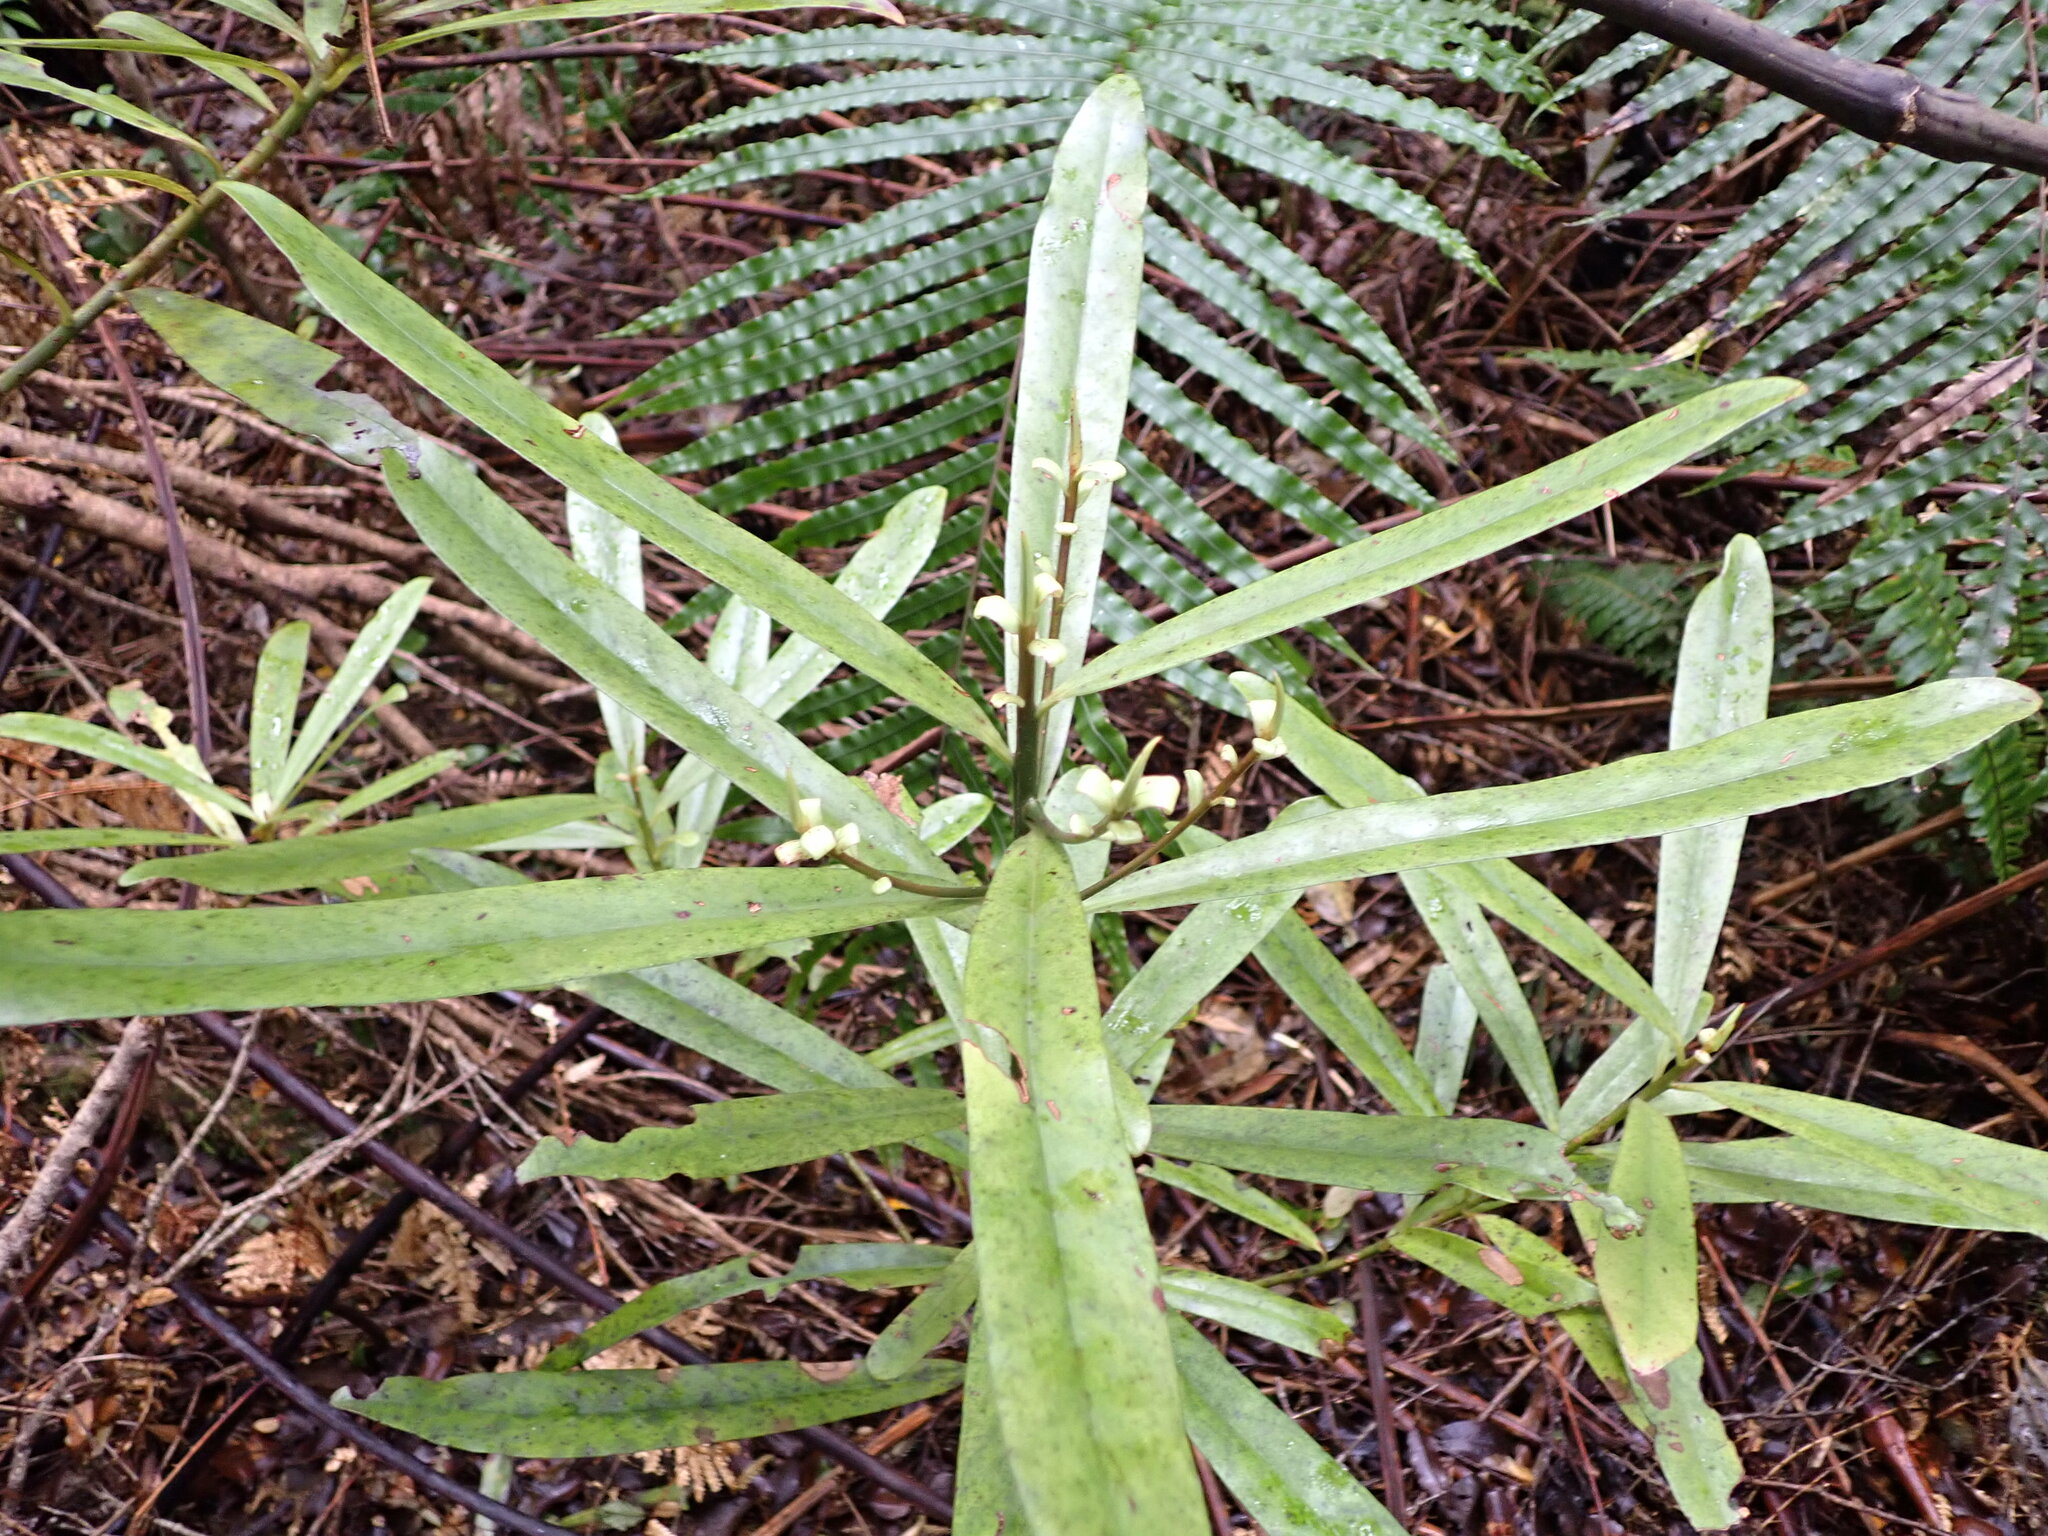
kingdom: Plantae
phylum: Tracheophyta
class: Magnoliopsida
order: Ericales
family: Primulaceae
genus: Myrsine
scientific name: Myrsine salicina
